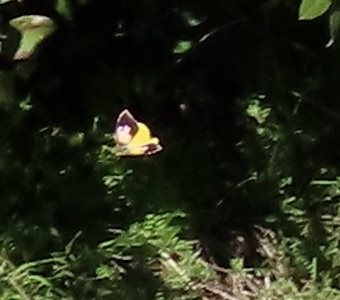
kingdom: Animalia
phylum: Arthropoda
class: Insecta
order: Lepidoptera
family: Pieridae
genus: Zerene
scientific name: Zerene eurydice
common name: California dogface
